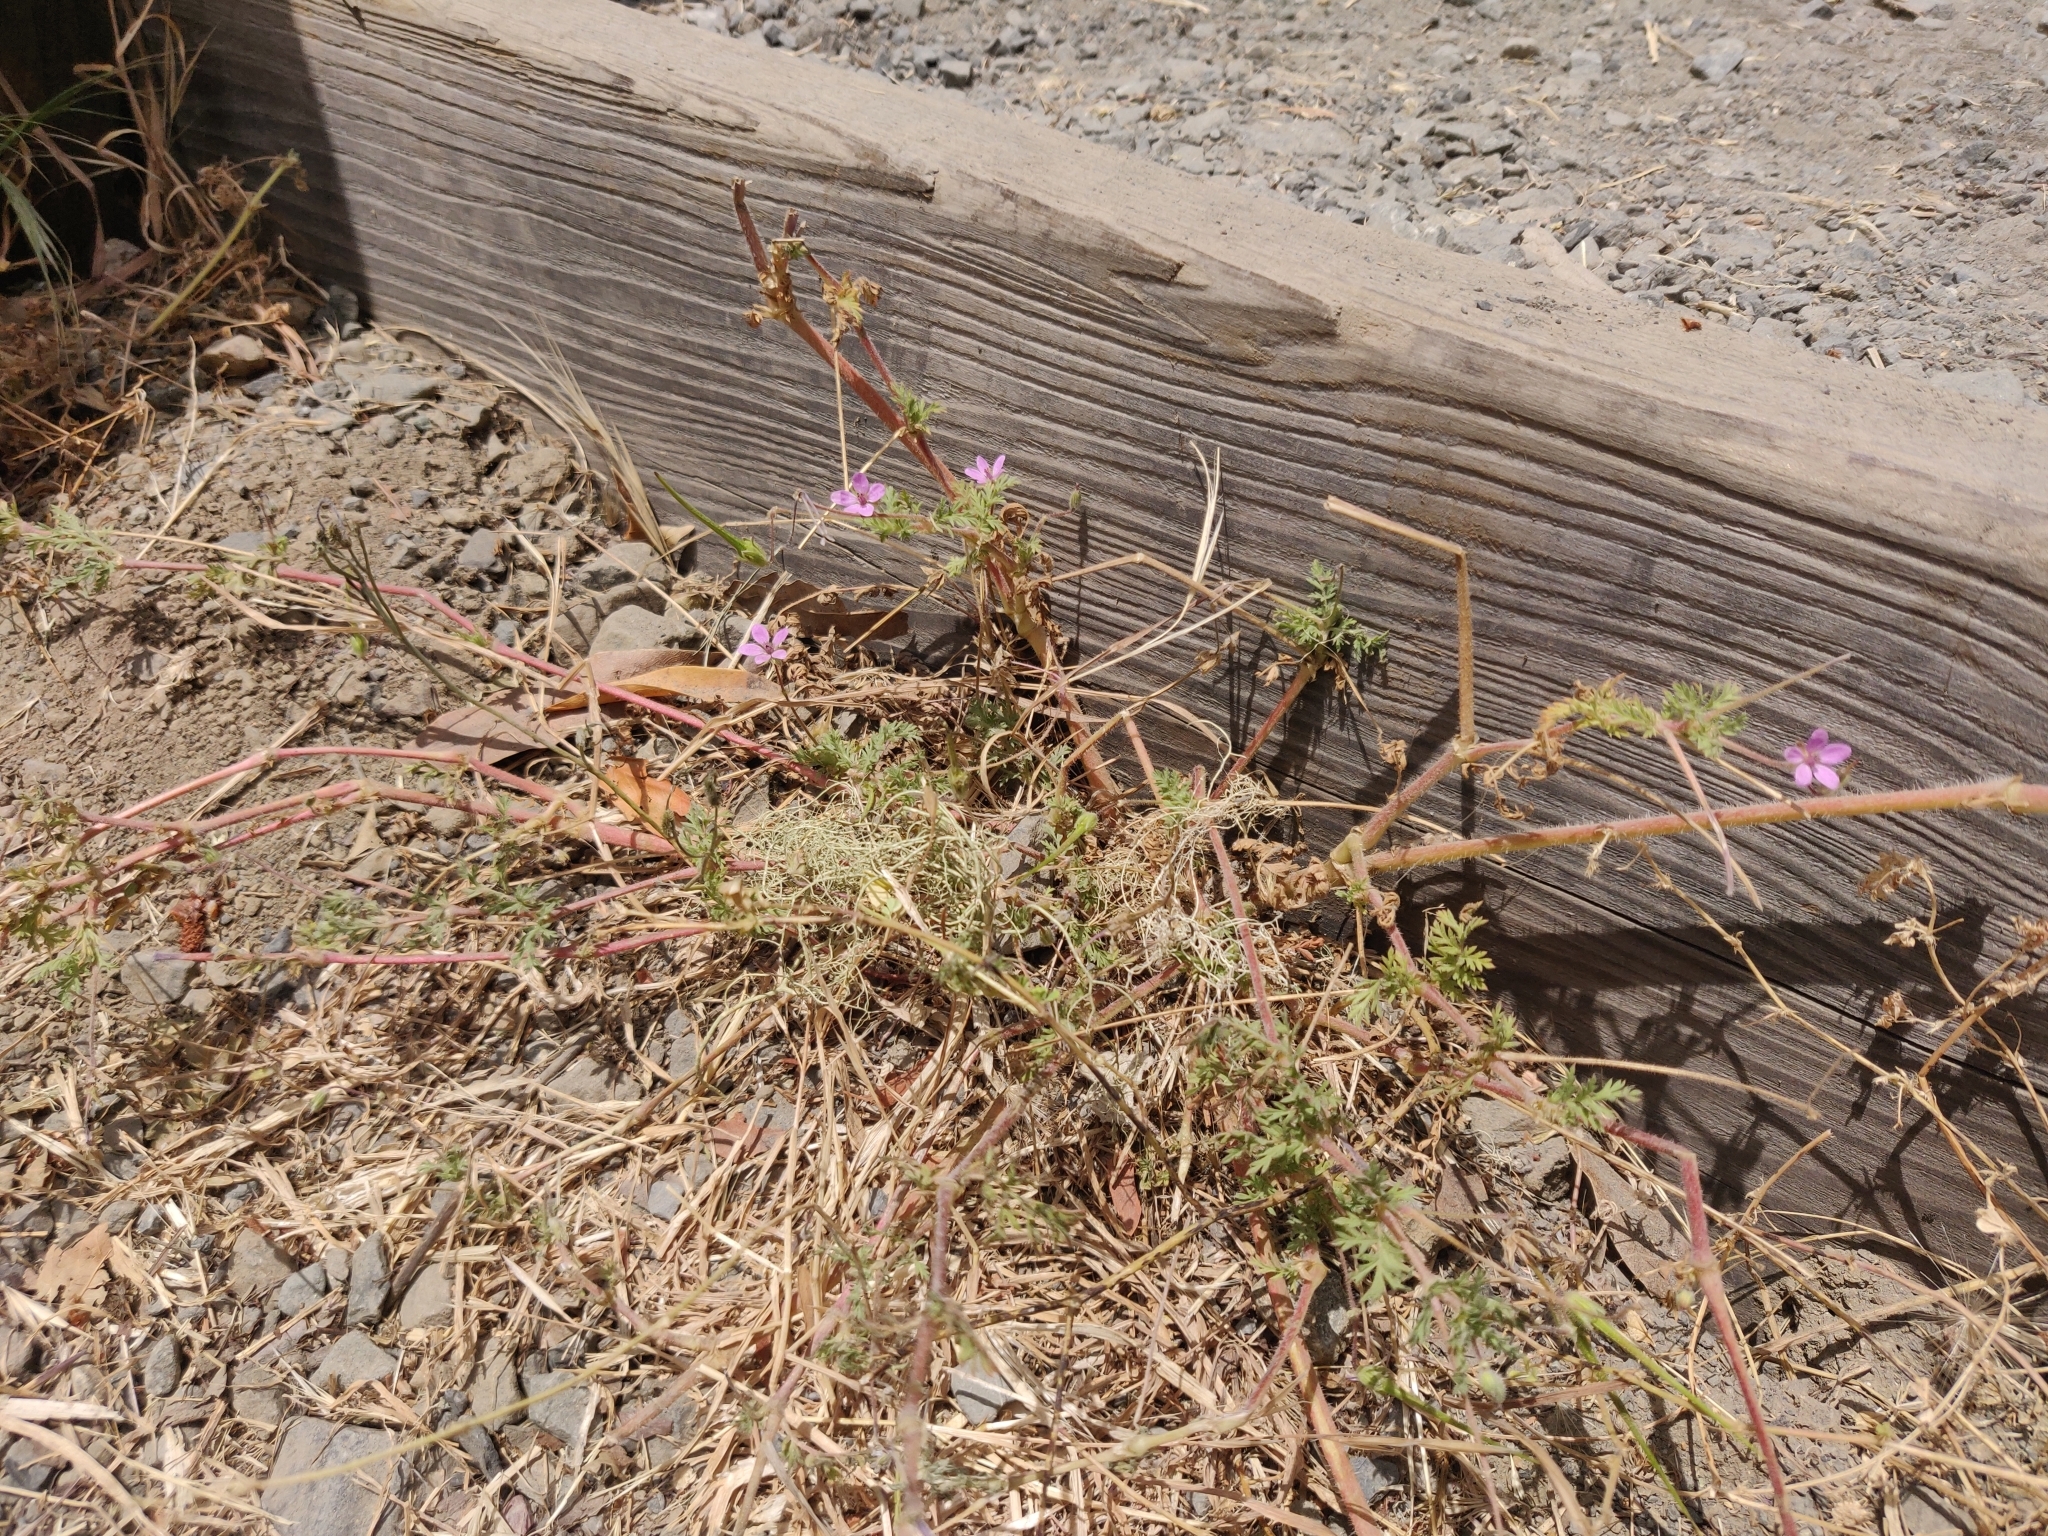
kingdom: Plantae
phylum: Tracheophyta
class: Magnoliopsida
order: Geraniales
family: Geraniaceae
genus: Erodium
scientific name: Erodium cicutarium
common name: Common stork's-bill
